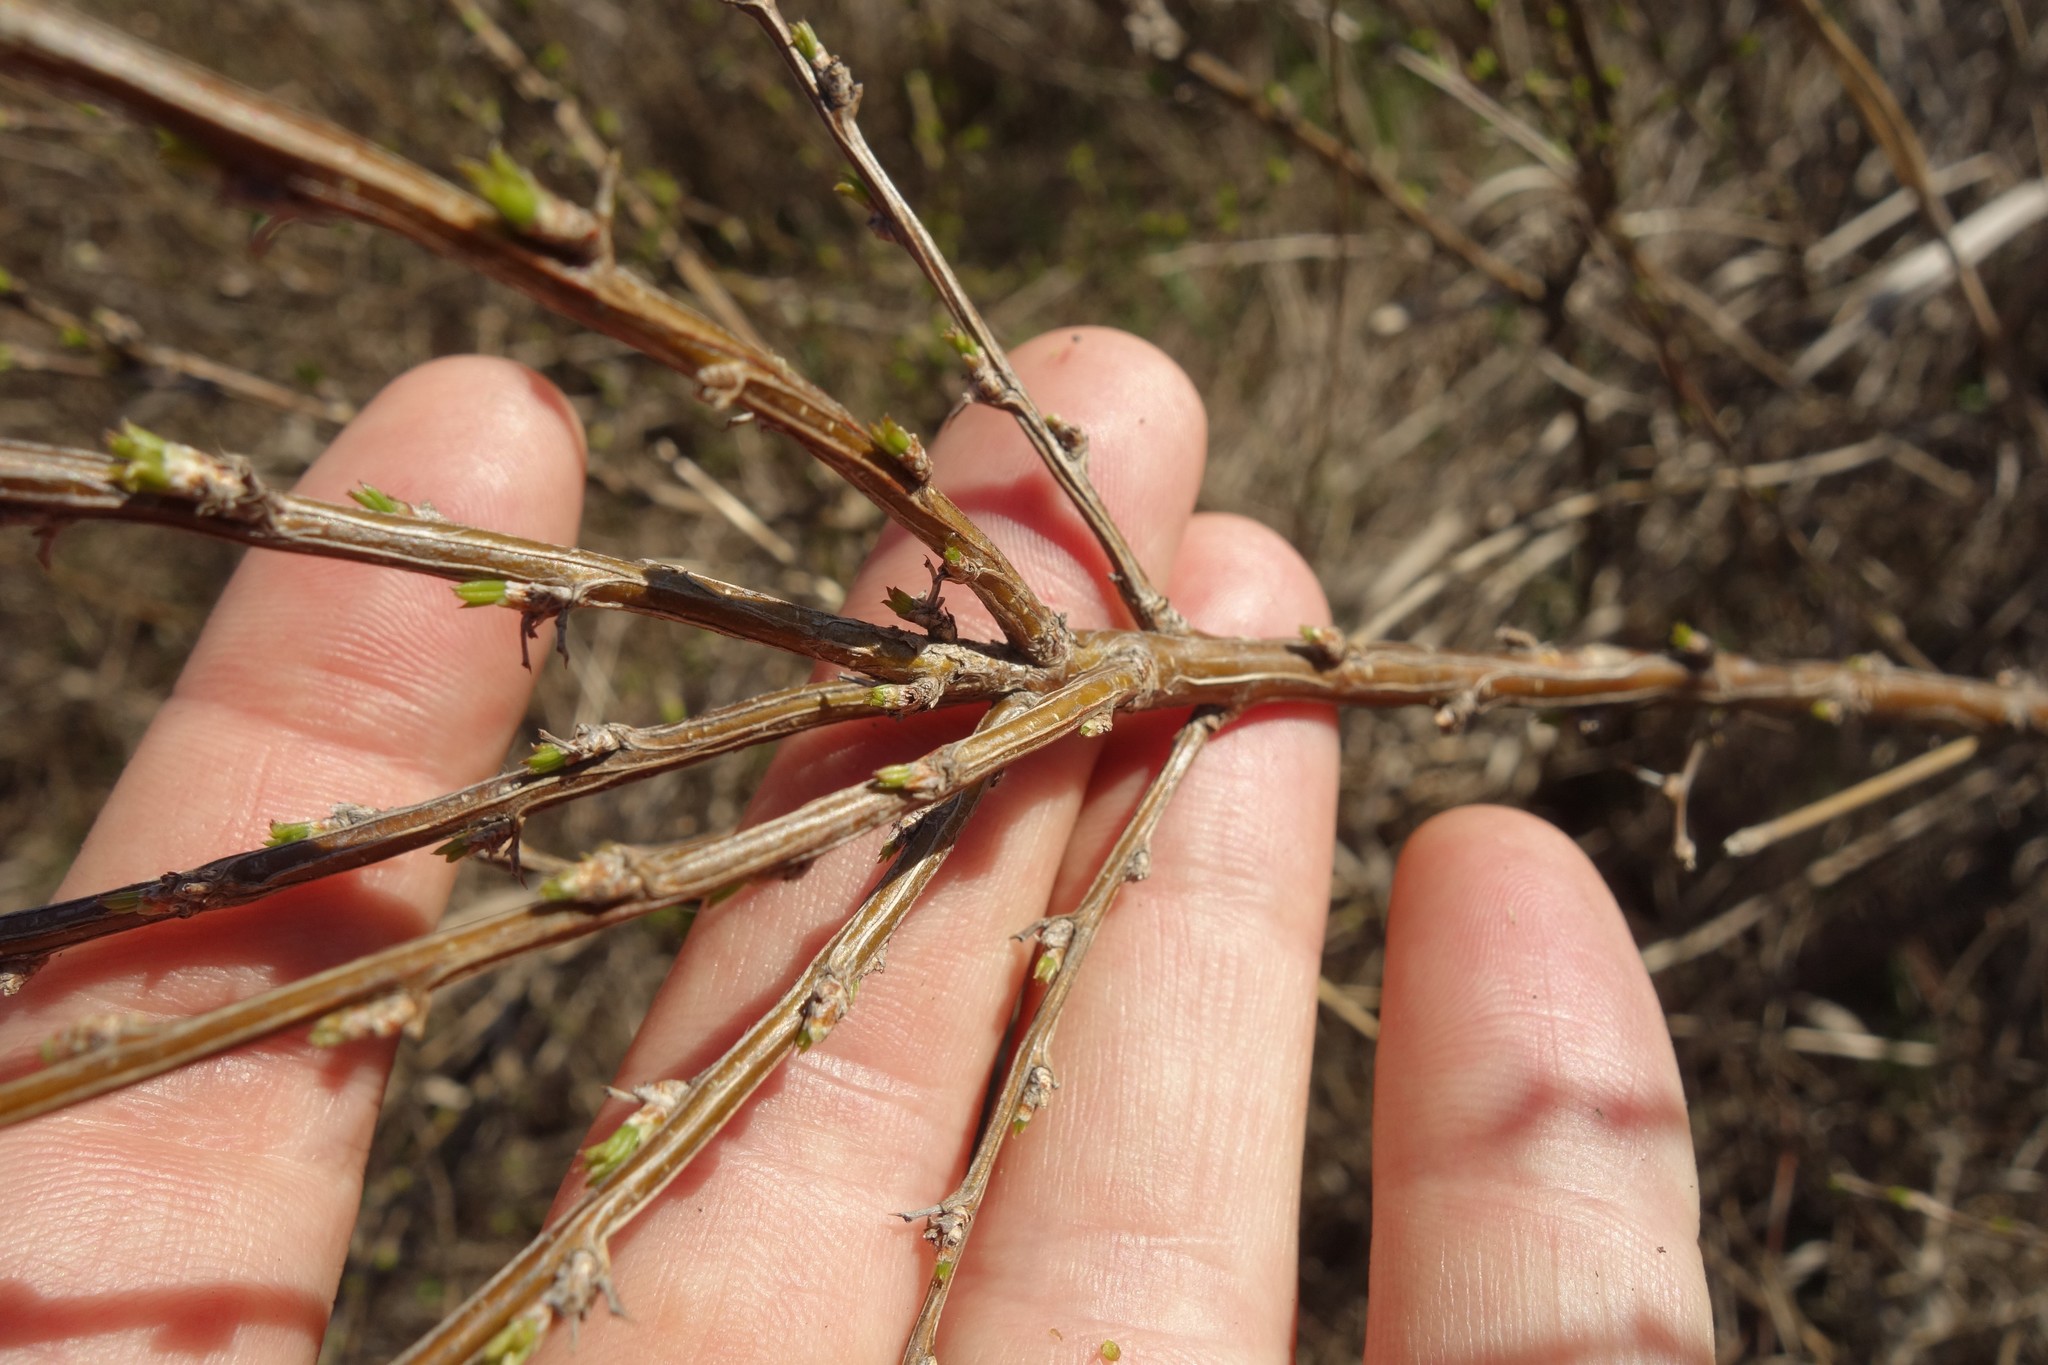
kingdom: Plantae
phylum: Tracheophyta
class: Magnoliopsida
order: Fabales
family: Fabaceae
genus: Caragana
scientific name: Caragana frutex
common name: Russian peashrub
